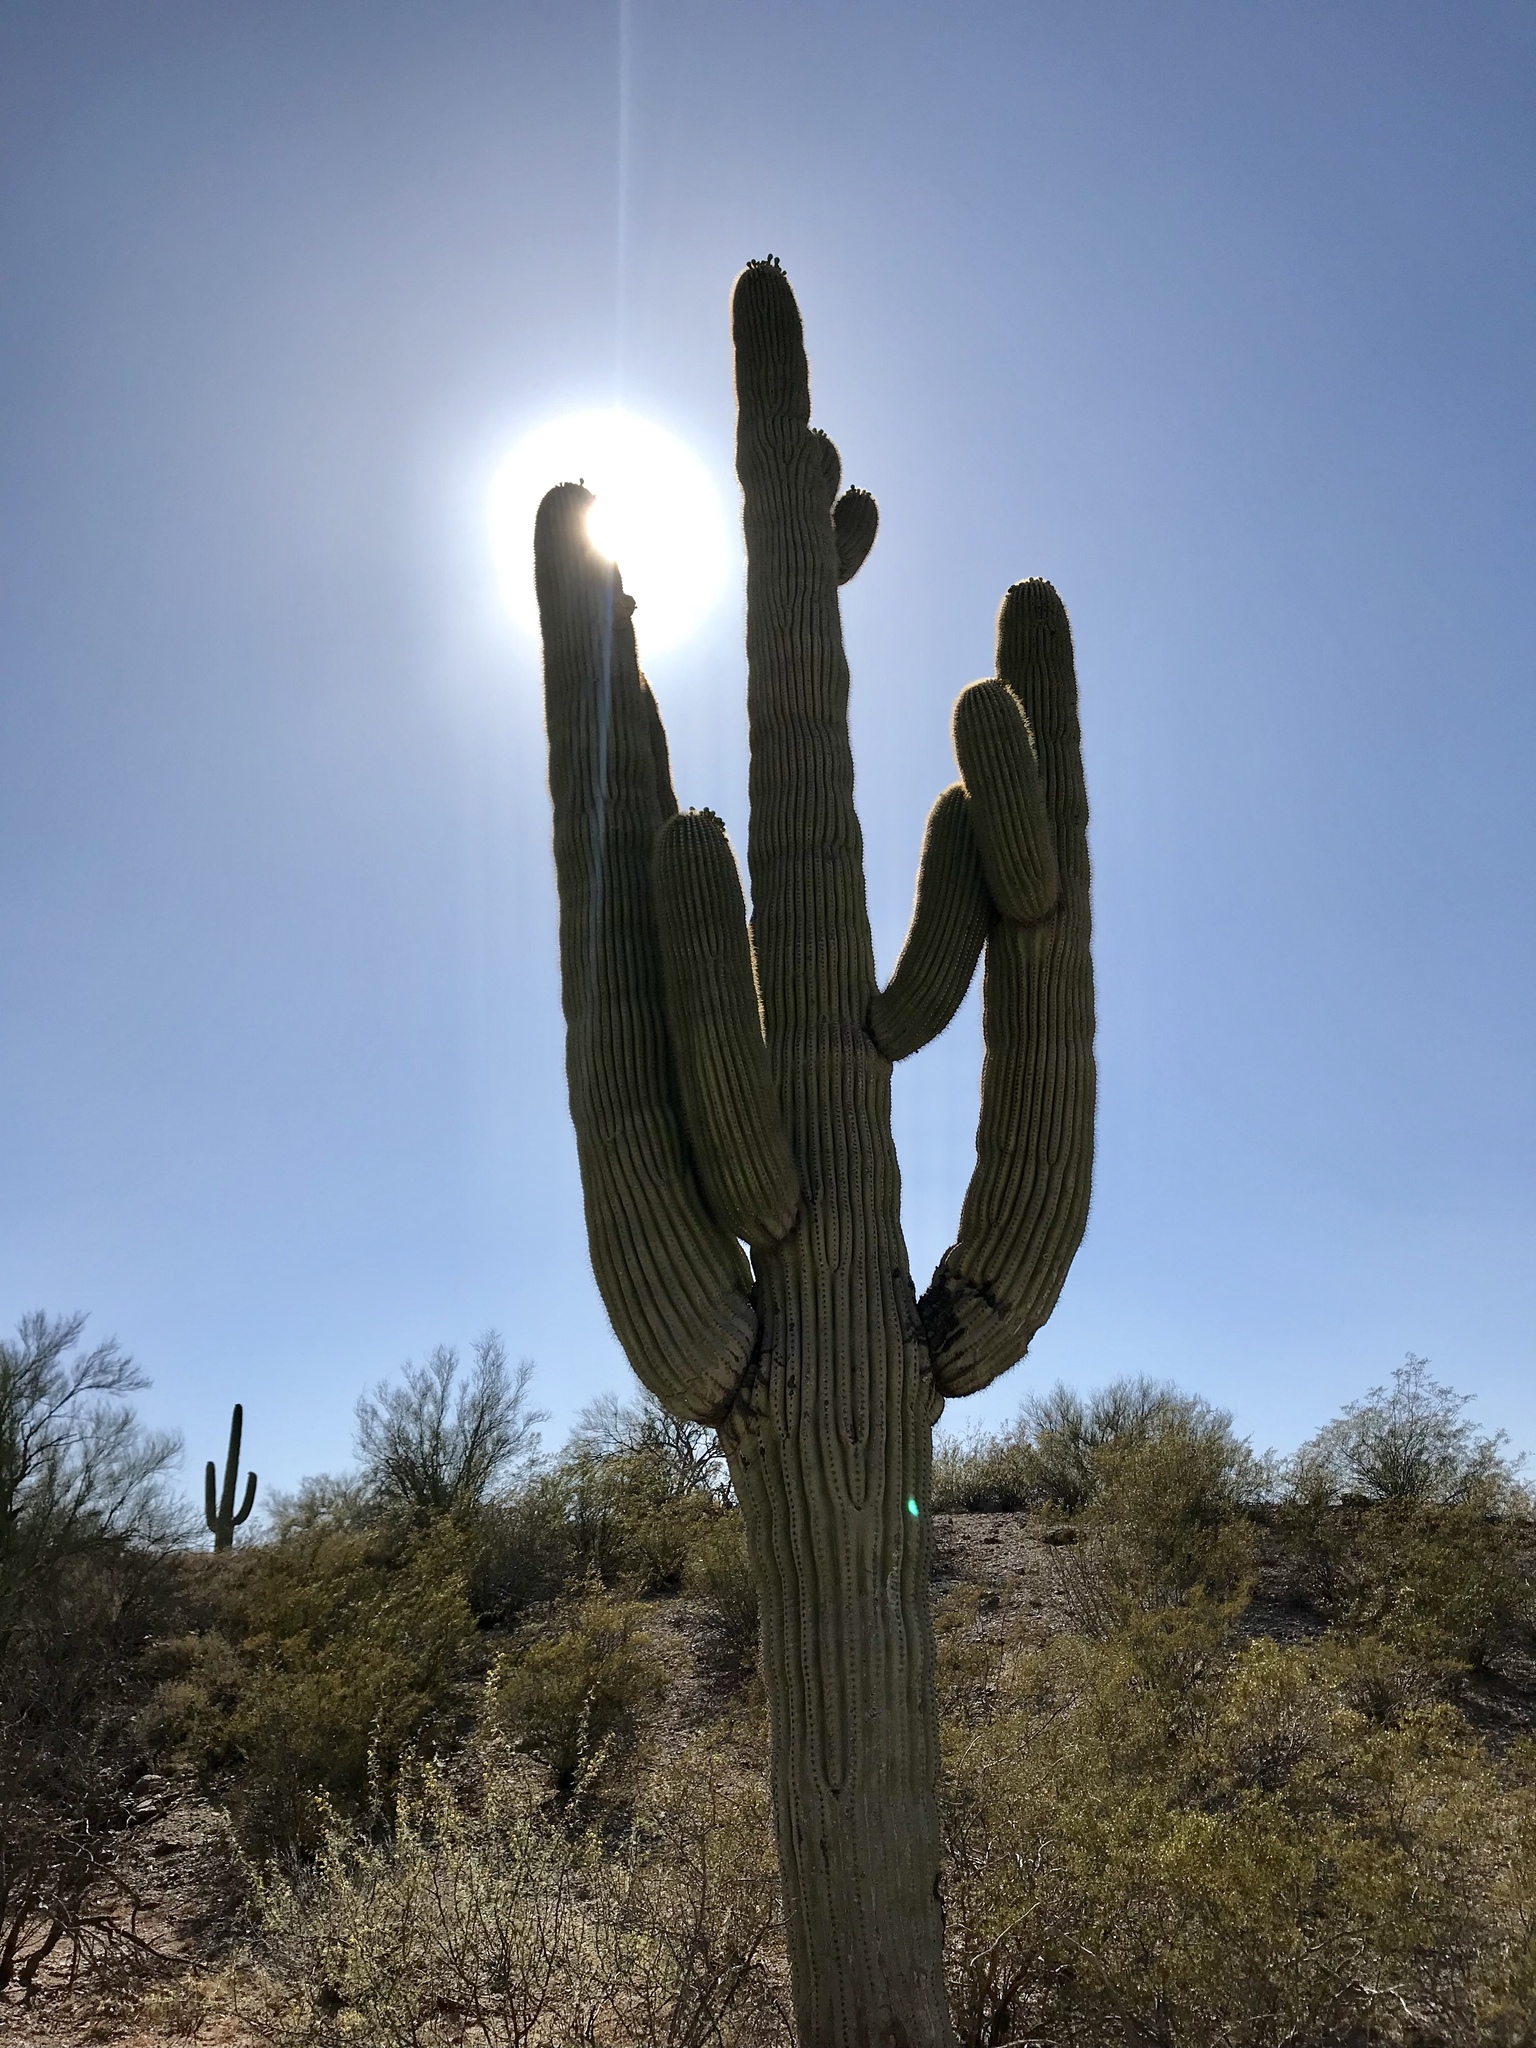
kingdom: Plantae
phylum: Tracheophyta
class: Magnoliopsida
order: Caryophyllales
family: Cactaceae
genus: Carnegiea
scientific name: Carnegiea gigantea
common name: Saguaro
